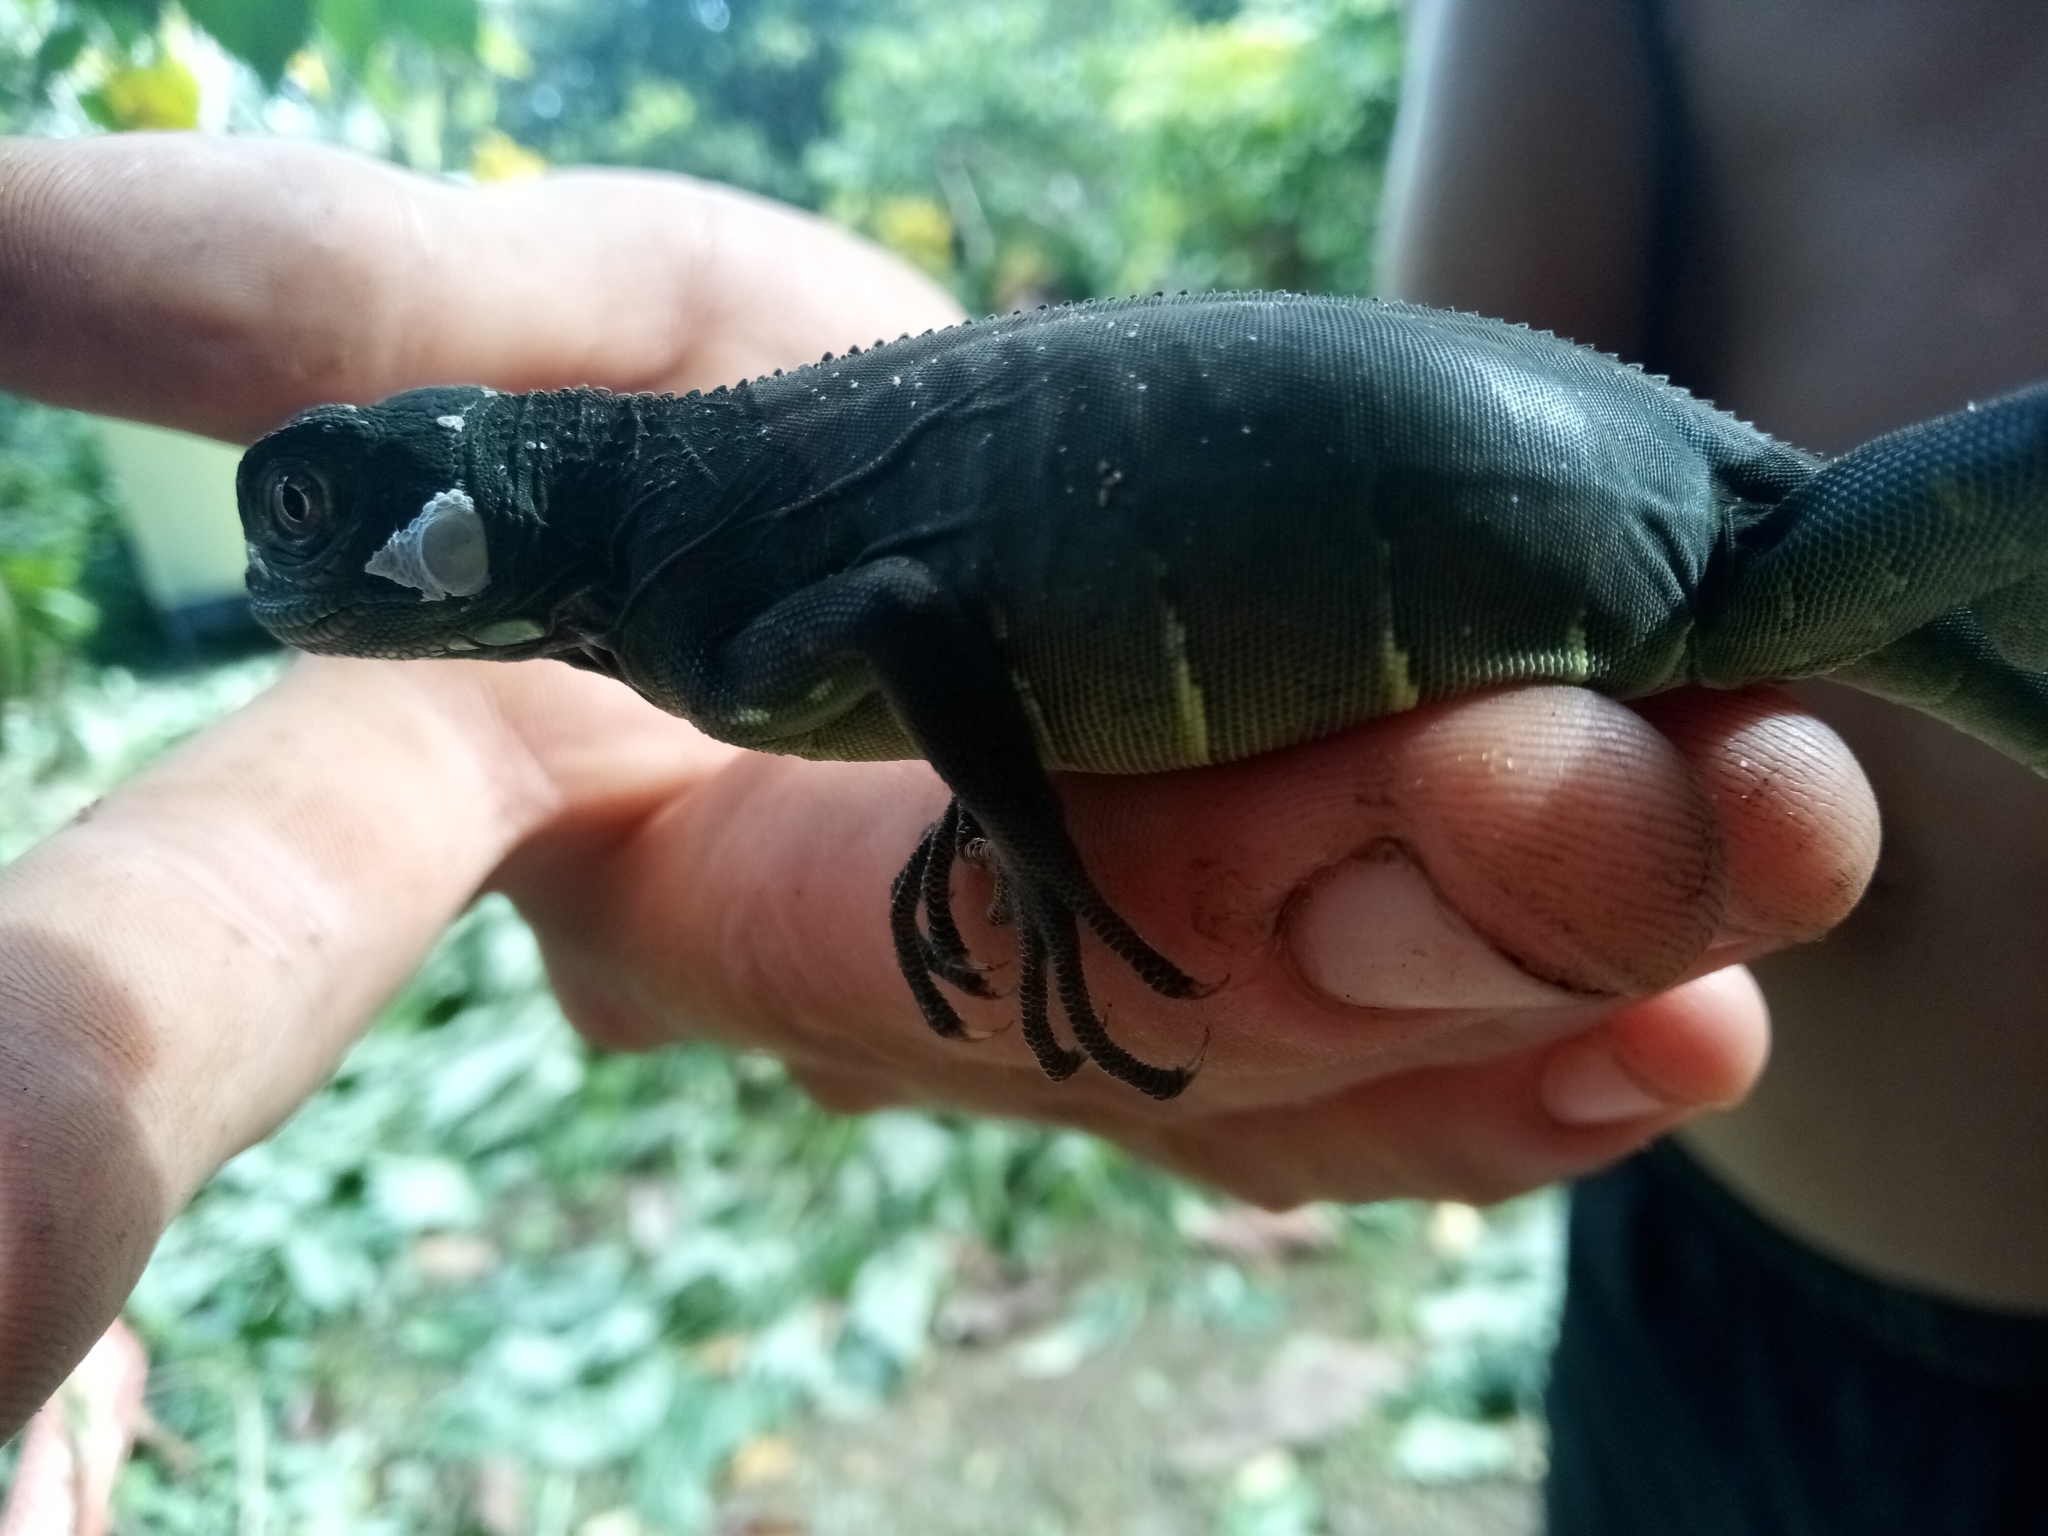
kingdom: Animalia
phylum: Chordata
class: Squamata
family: Iguanidae
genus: Iguana
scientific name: Iguana iguana
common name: Green iguana
